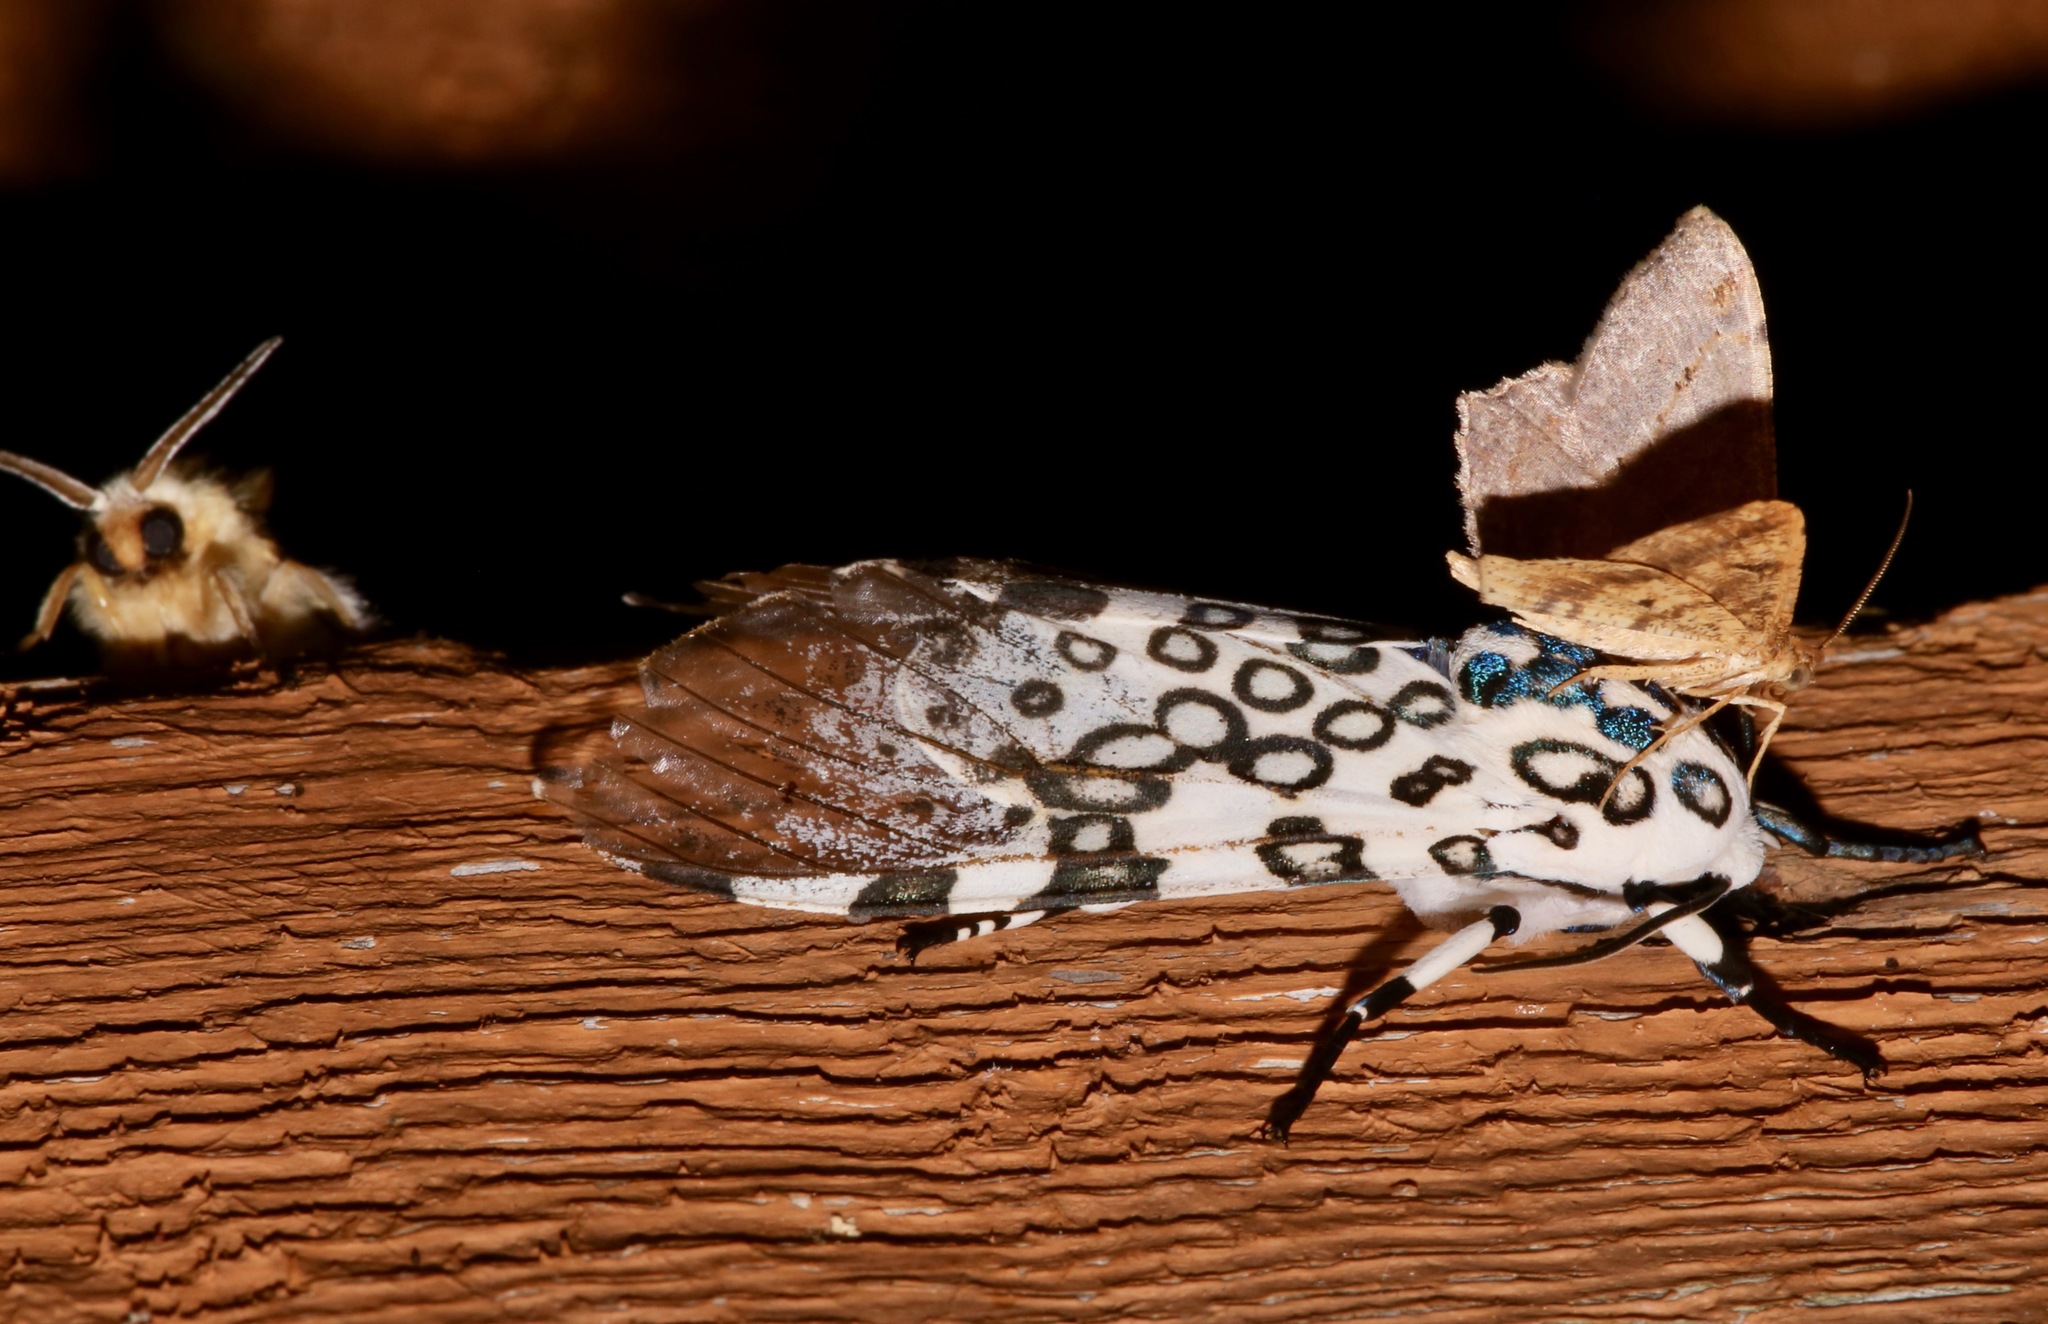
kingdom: Animalia
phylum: Arthropoda
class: Insecta
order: Lepidoptera
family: Erebidae
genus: Hypercompe
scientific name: Hypercompe scribonia
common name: Giant leopard moth
